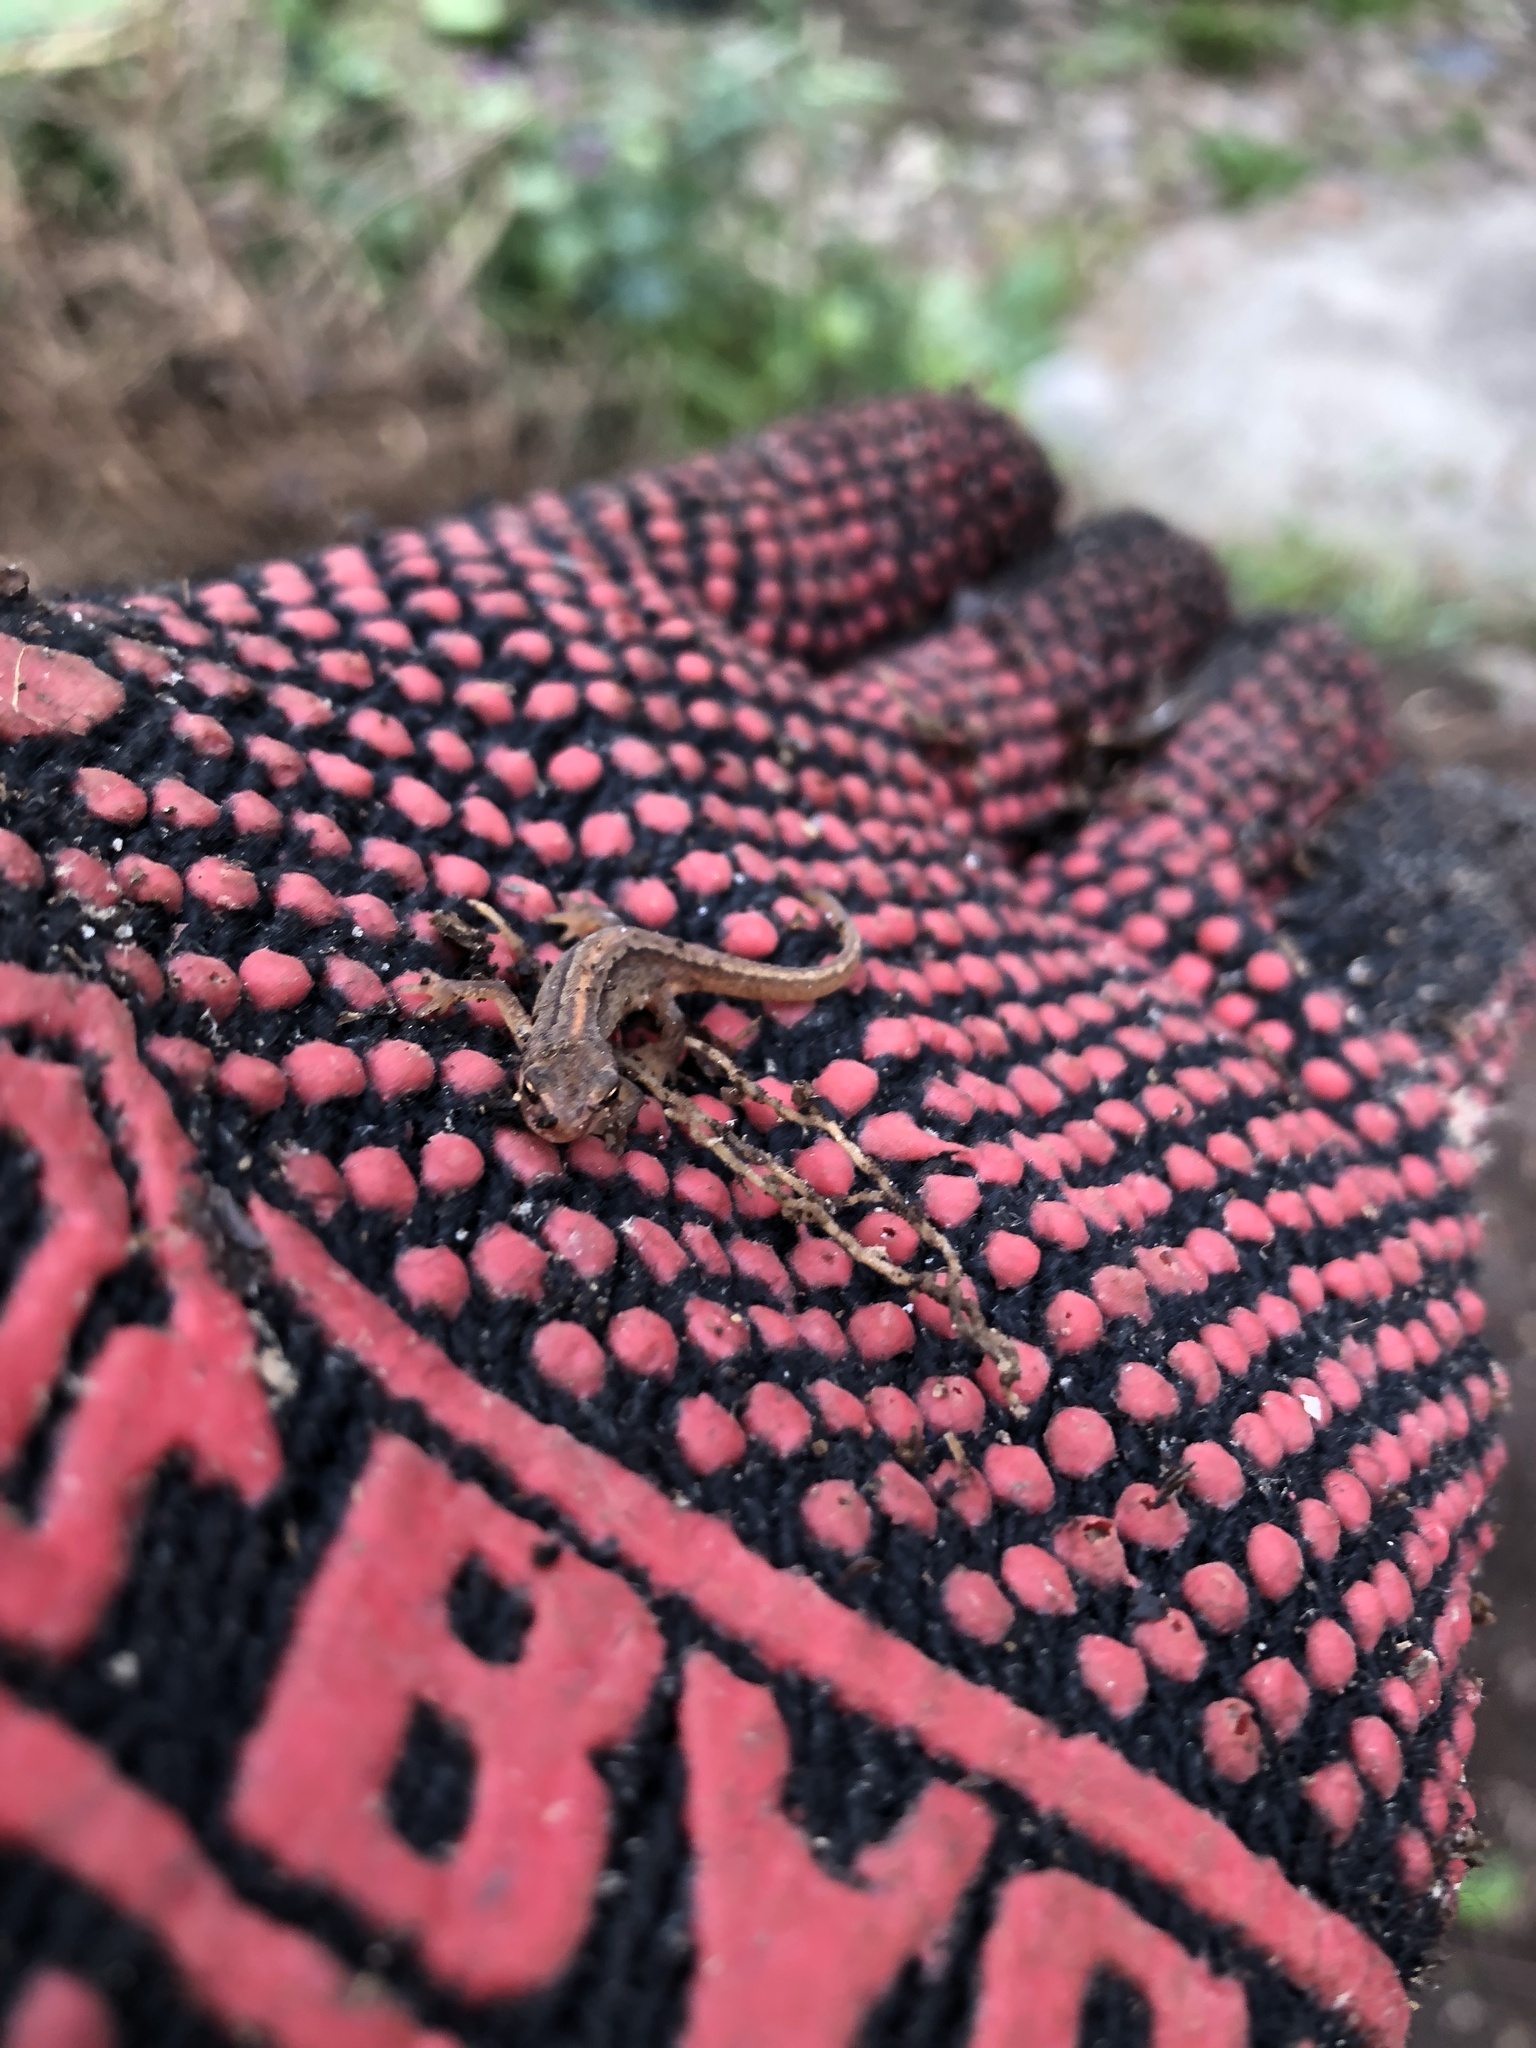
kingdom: Animalia
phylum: Chordata
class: Amphibia
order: Caudata
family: Salamandridae
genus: Lissotriton
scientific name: Lissotriton vulgaris
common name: Smooth newt
